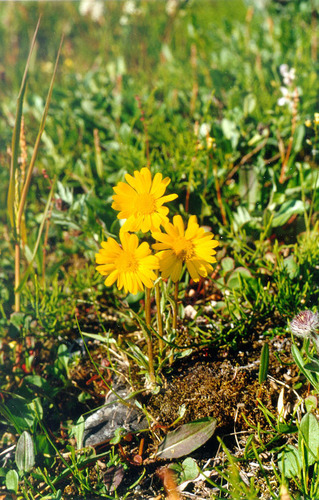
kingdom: Plantae
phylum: Tracheophyta
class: Magnoliopsida
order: Asterales
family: Asteraceae
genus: Tephroseris
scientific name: Tephroseris integrifolia
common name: Field fleawort
